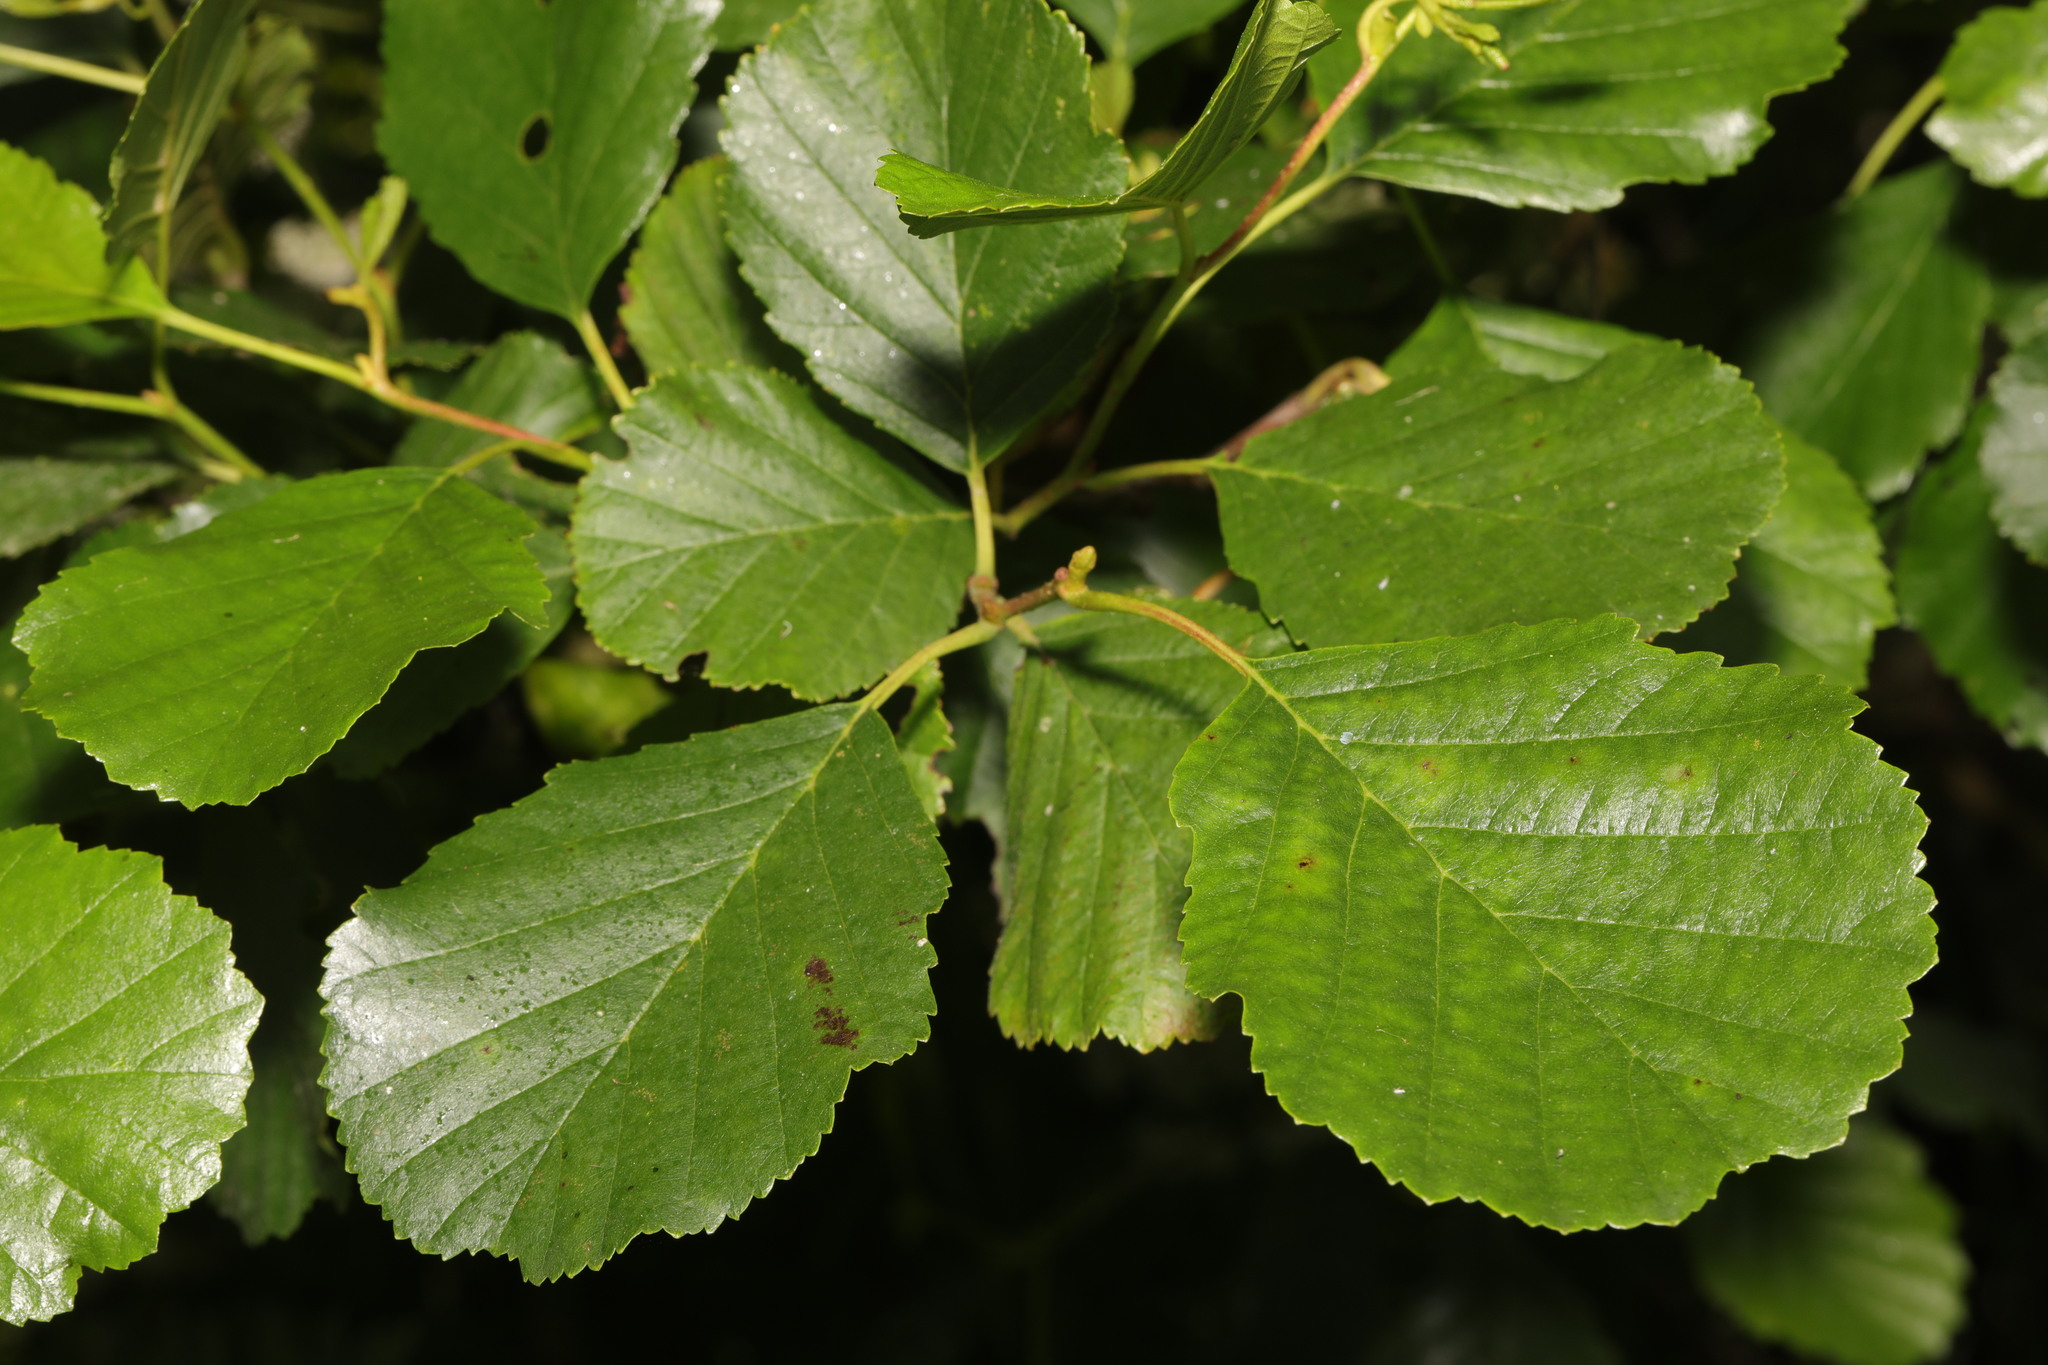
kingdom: Plantae
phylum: Tracheophyta
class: Magnoliopsida
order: Fagales
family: Betulaceae
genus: Alnus
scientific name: Alnus glutinosa
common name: Black alder
